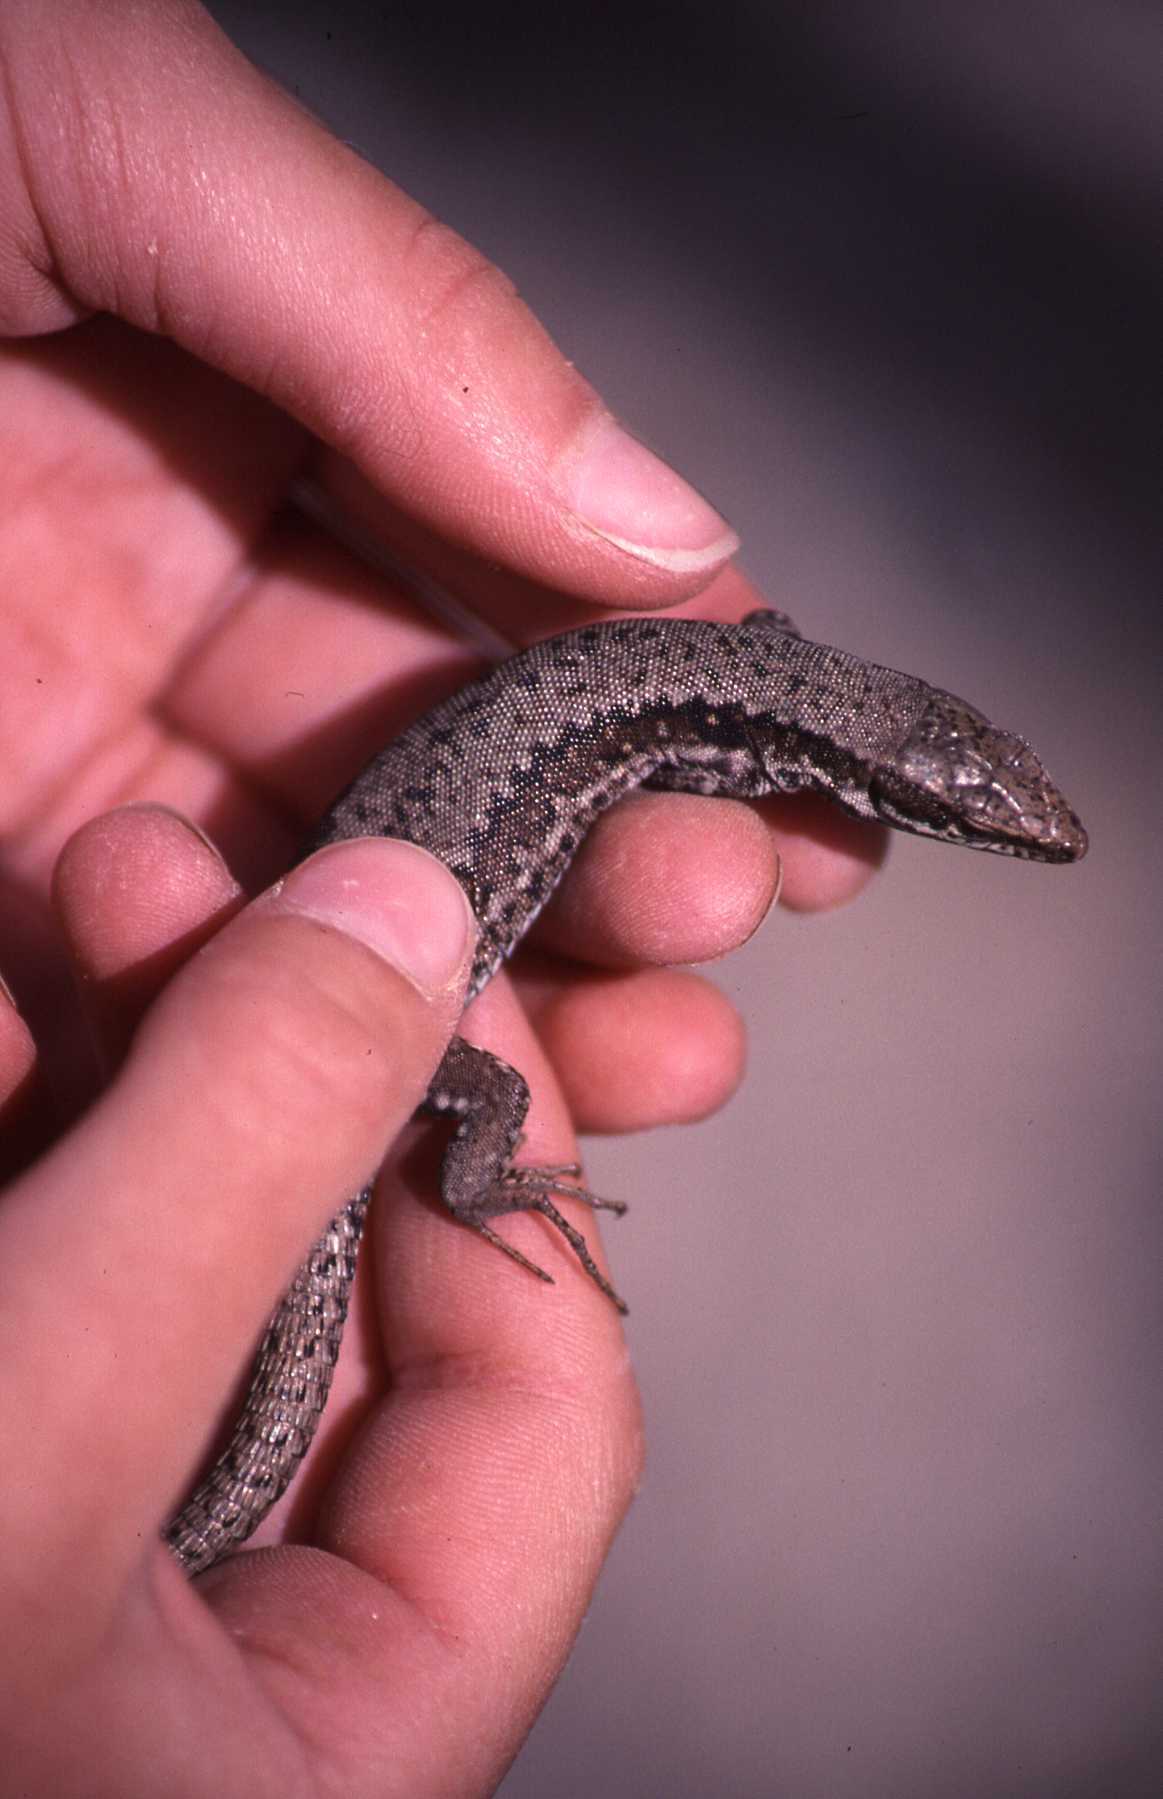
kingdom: Animalia
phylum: Chordata
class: Squamata
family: Lacertidae
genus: Podarcis
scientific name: Podarcis muralis
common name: Common wall lizard
